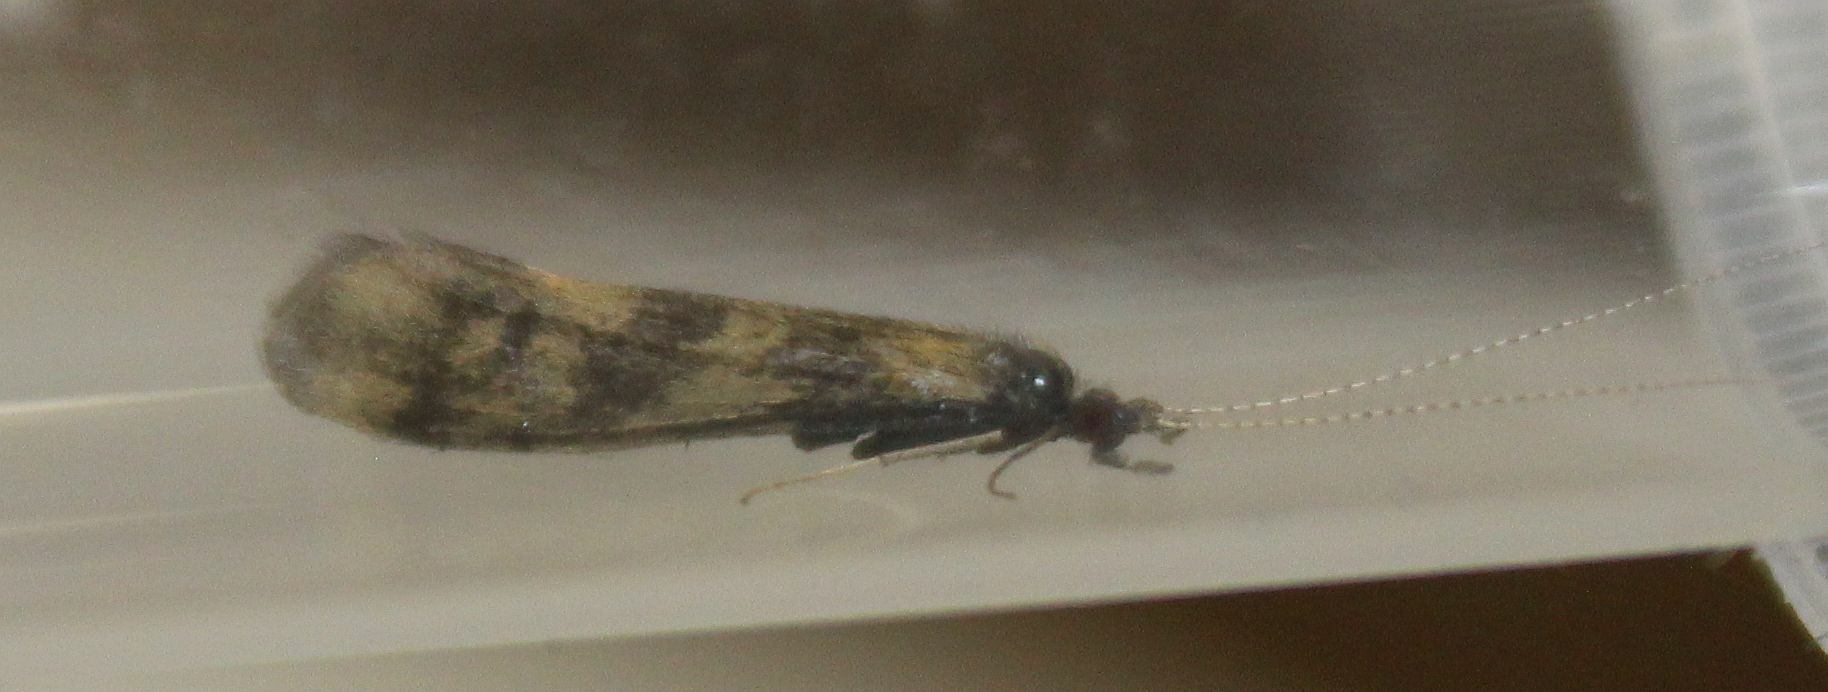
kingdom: Animalia
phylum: Arthropoda
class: Insecta
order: Trichoptera
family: Leptoceridae
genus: Mystacides
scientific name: Mystacides longicornis
